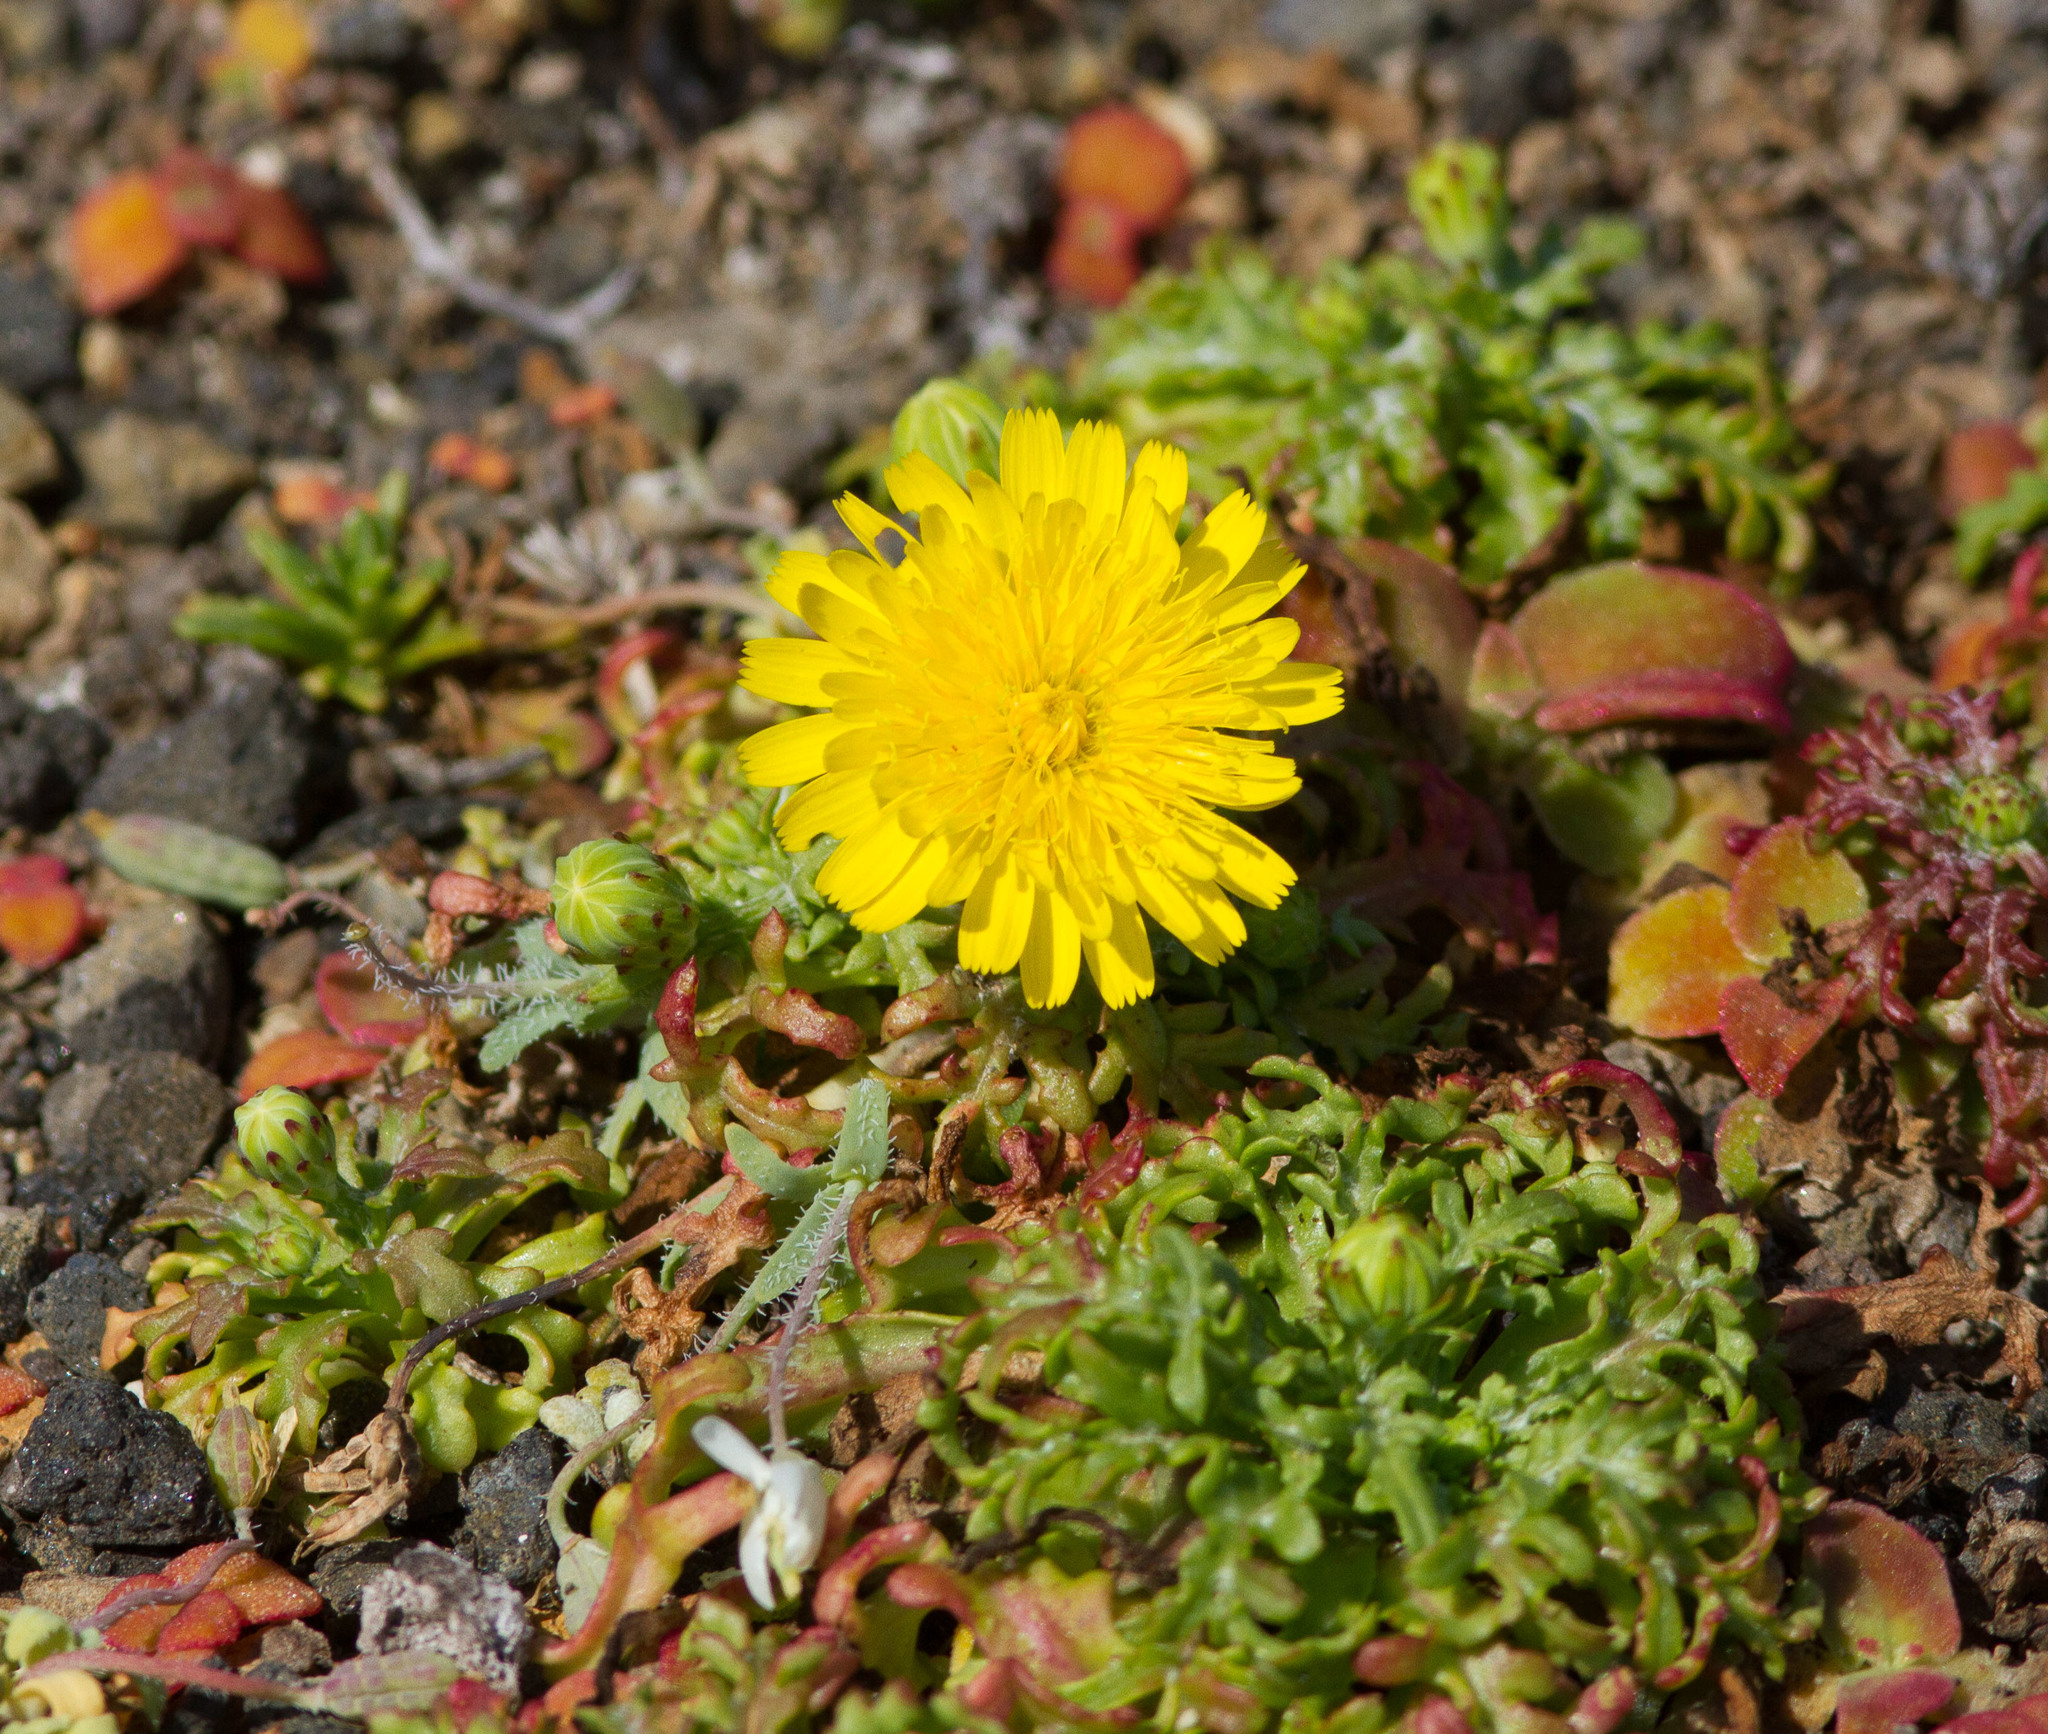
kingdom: Plantae
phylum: Tracheophyta
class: Magnoliopsida
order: Asterales
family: Asteraceae
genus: Malacothrix
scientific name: Malacothrix foliosa
